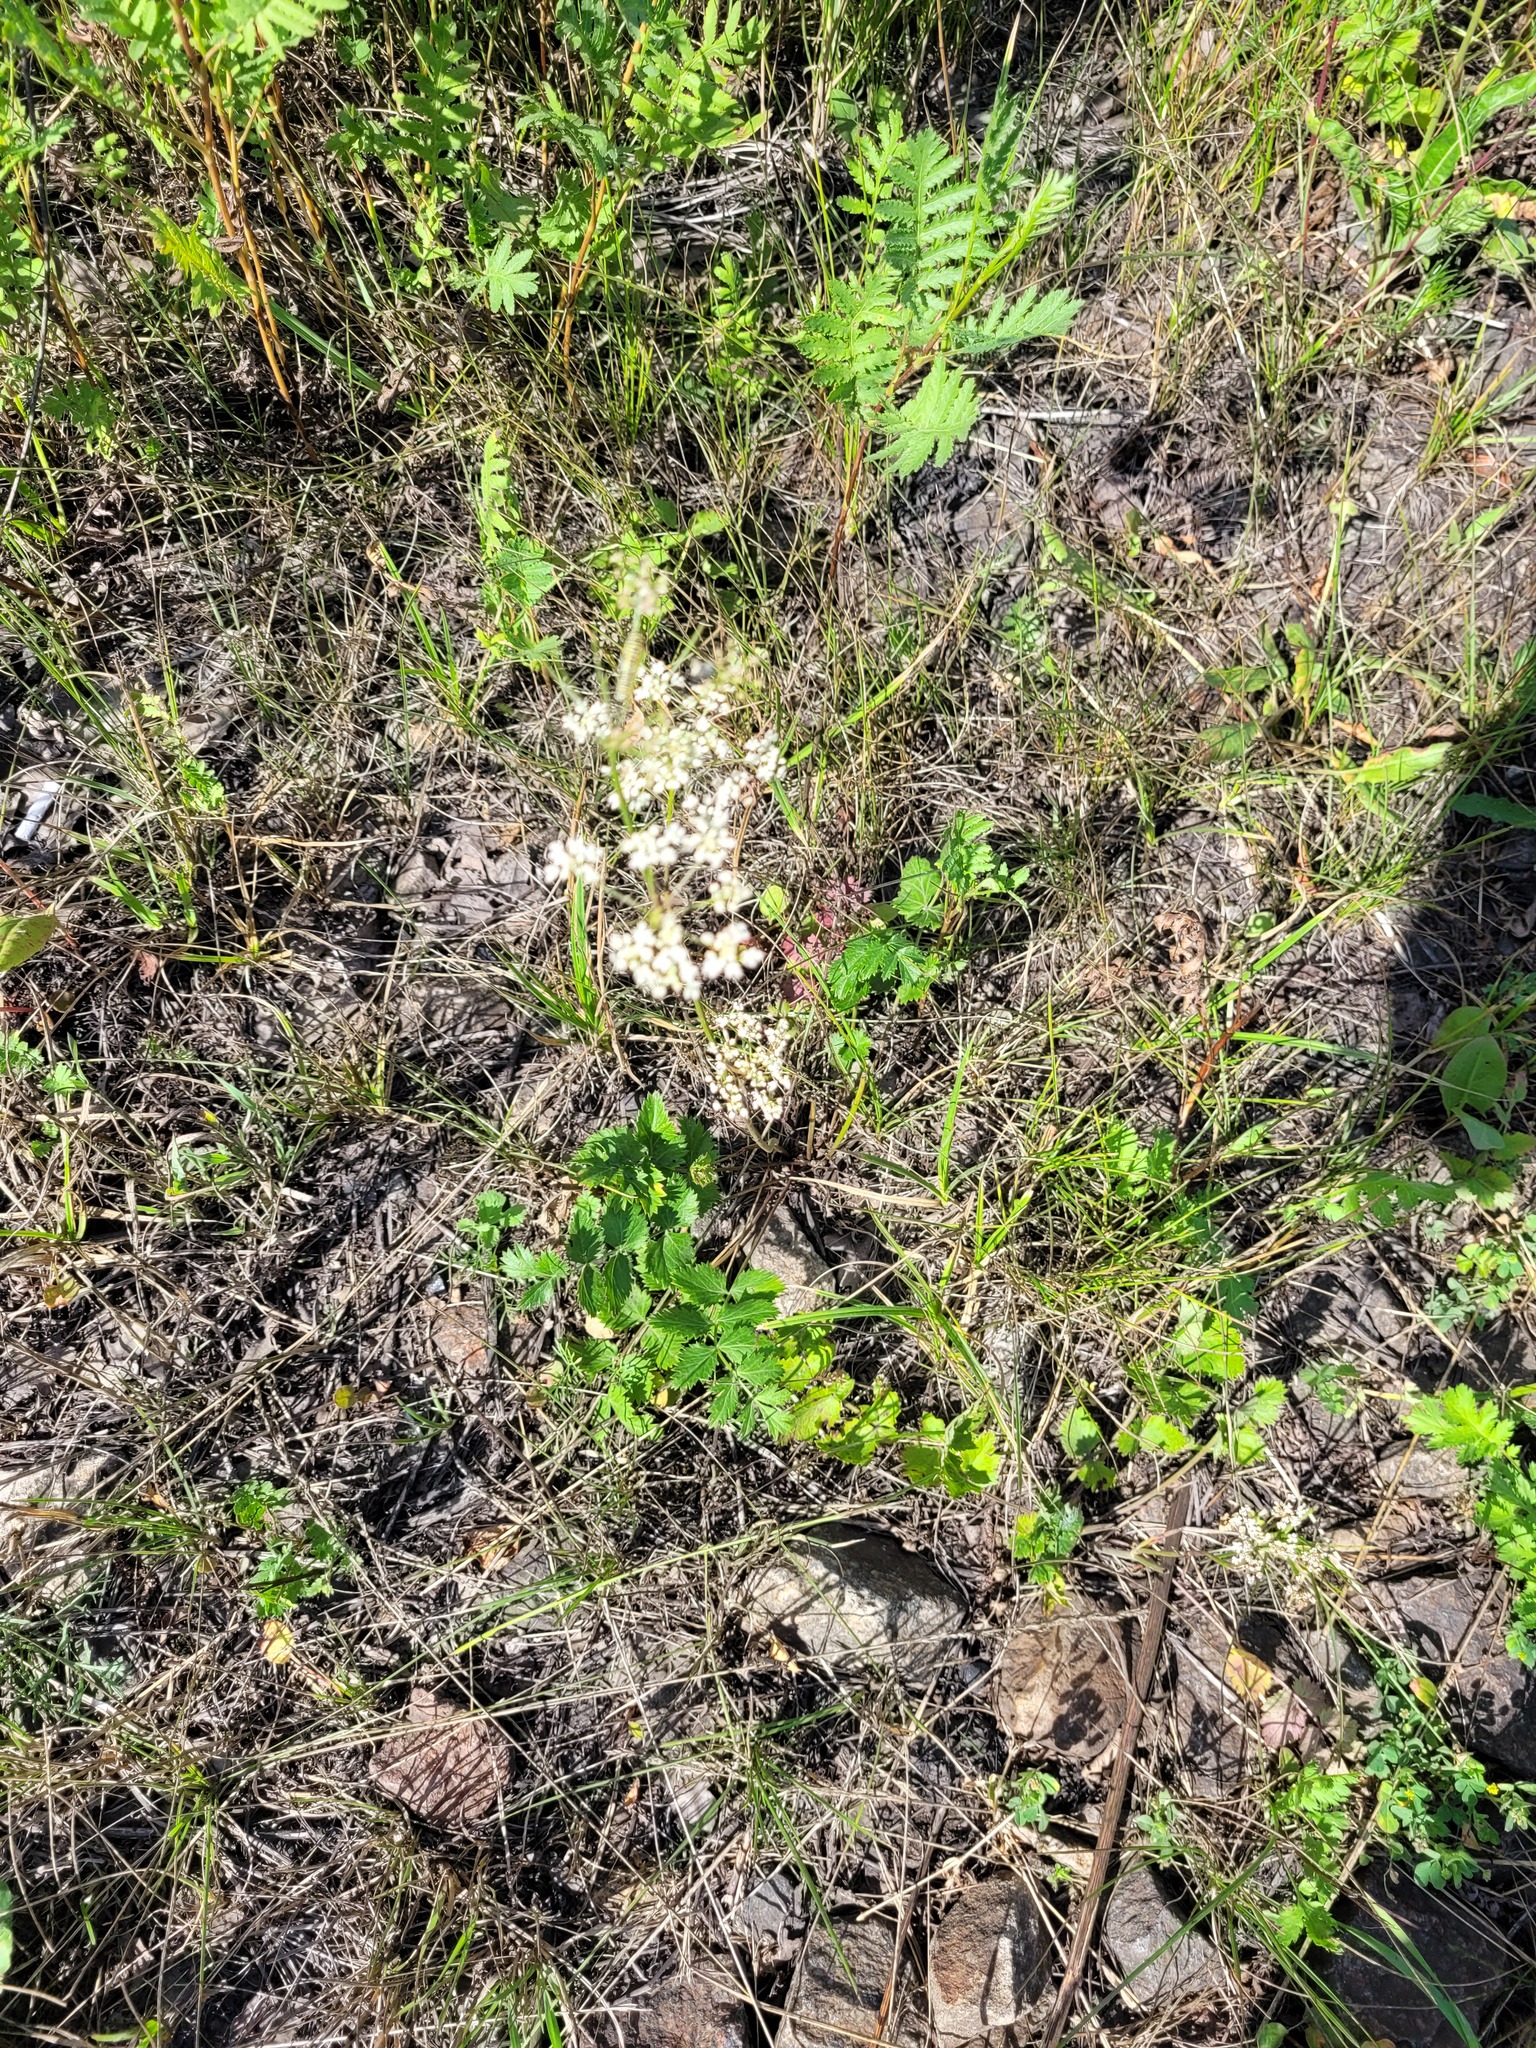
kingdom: Plantae
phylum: Tracheophyta
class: Magnoliopsida
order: Apiales
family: Apiaceae
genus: Pimpinella
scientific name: Pimpinella saxifraga
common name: Burnet-saxifrage
